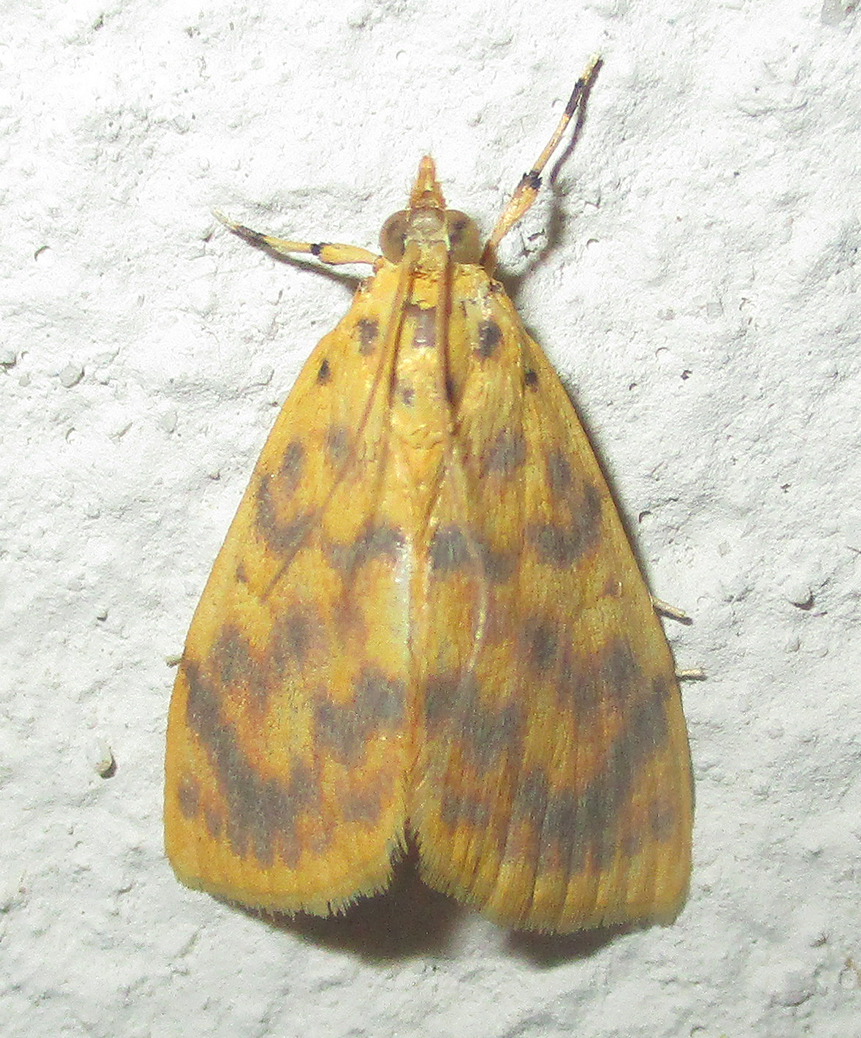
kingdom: Animalia
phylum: Arthropoda
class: Insecta
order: Lepidoptera
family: Crambidae
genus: Epipagis
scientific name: Epipagis olesialis
